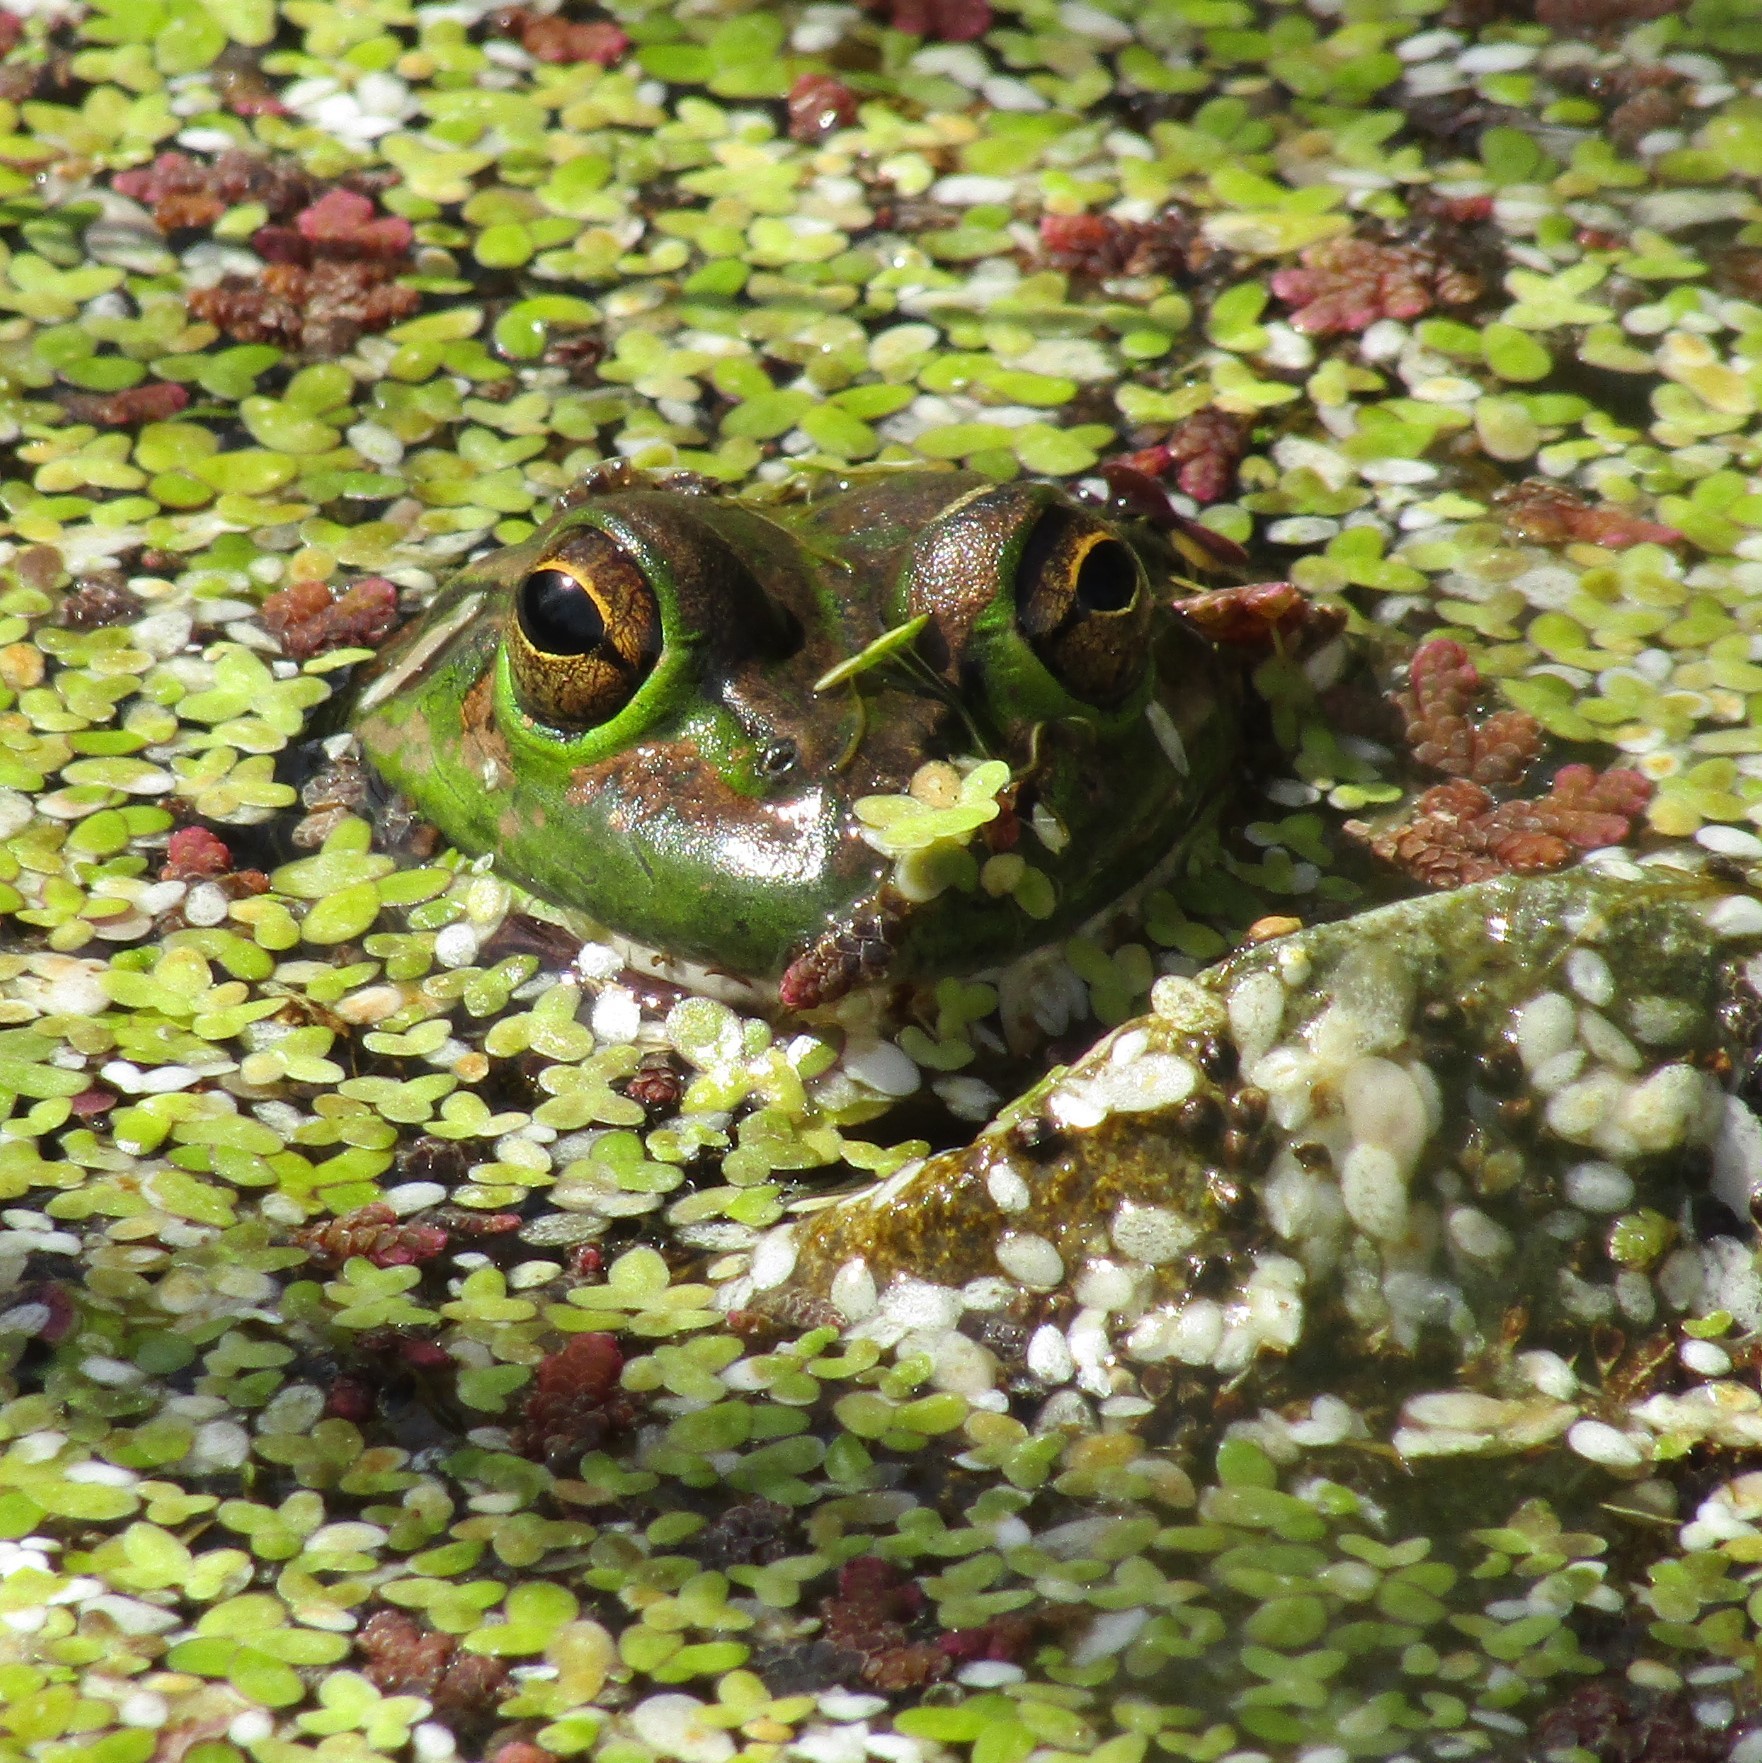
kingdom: Animalia
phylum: Chordata
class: Amphibia
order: Anura
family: Pelodryadidae
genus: Ranoidea
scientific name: Ranoidea aurea
